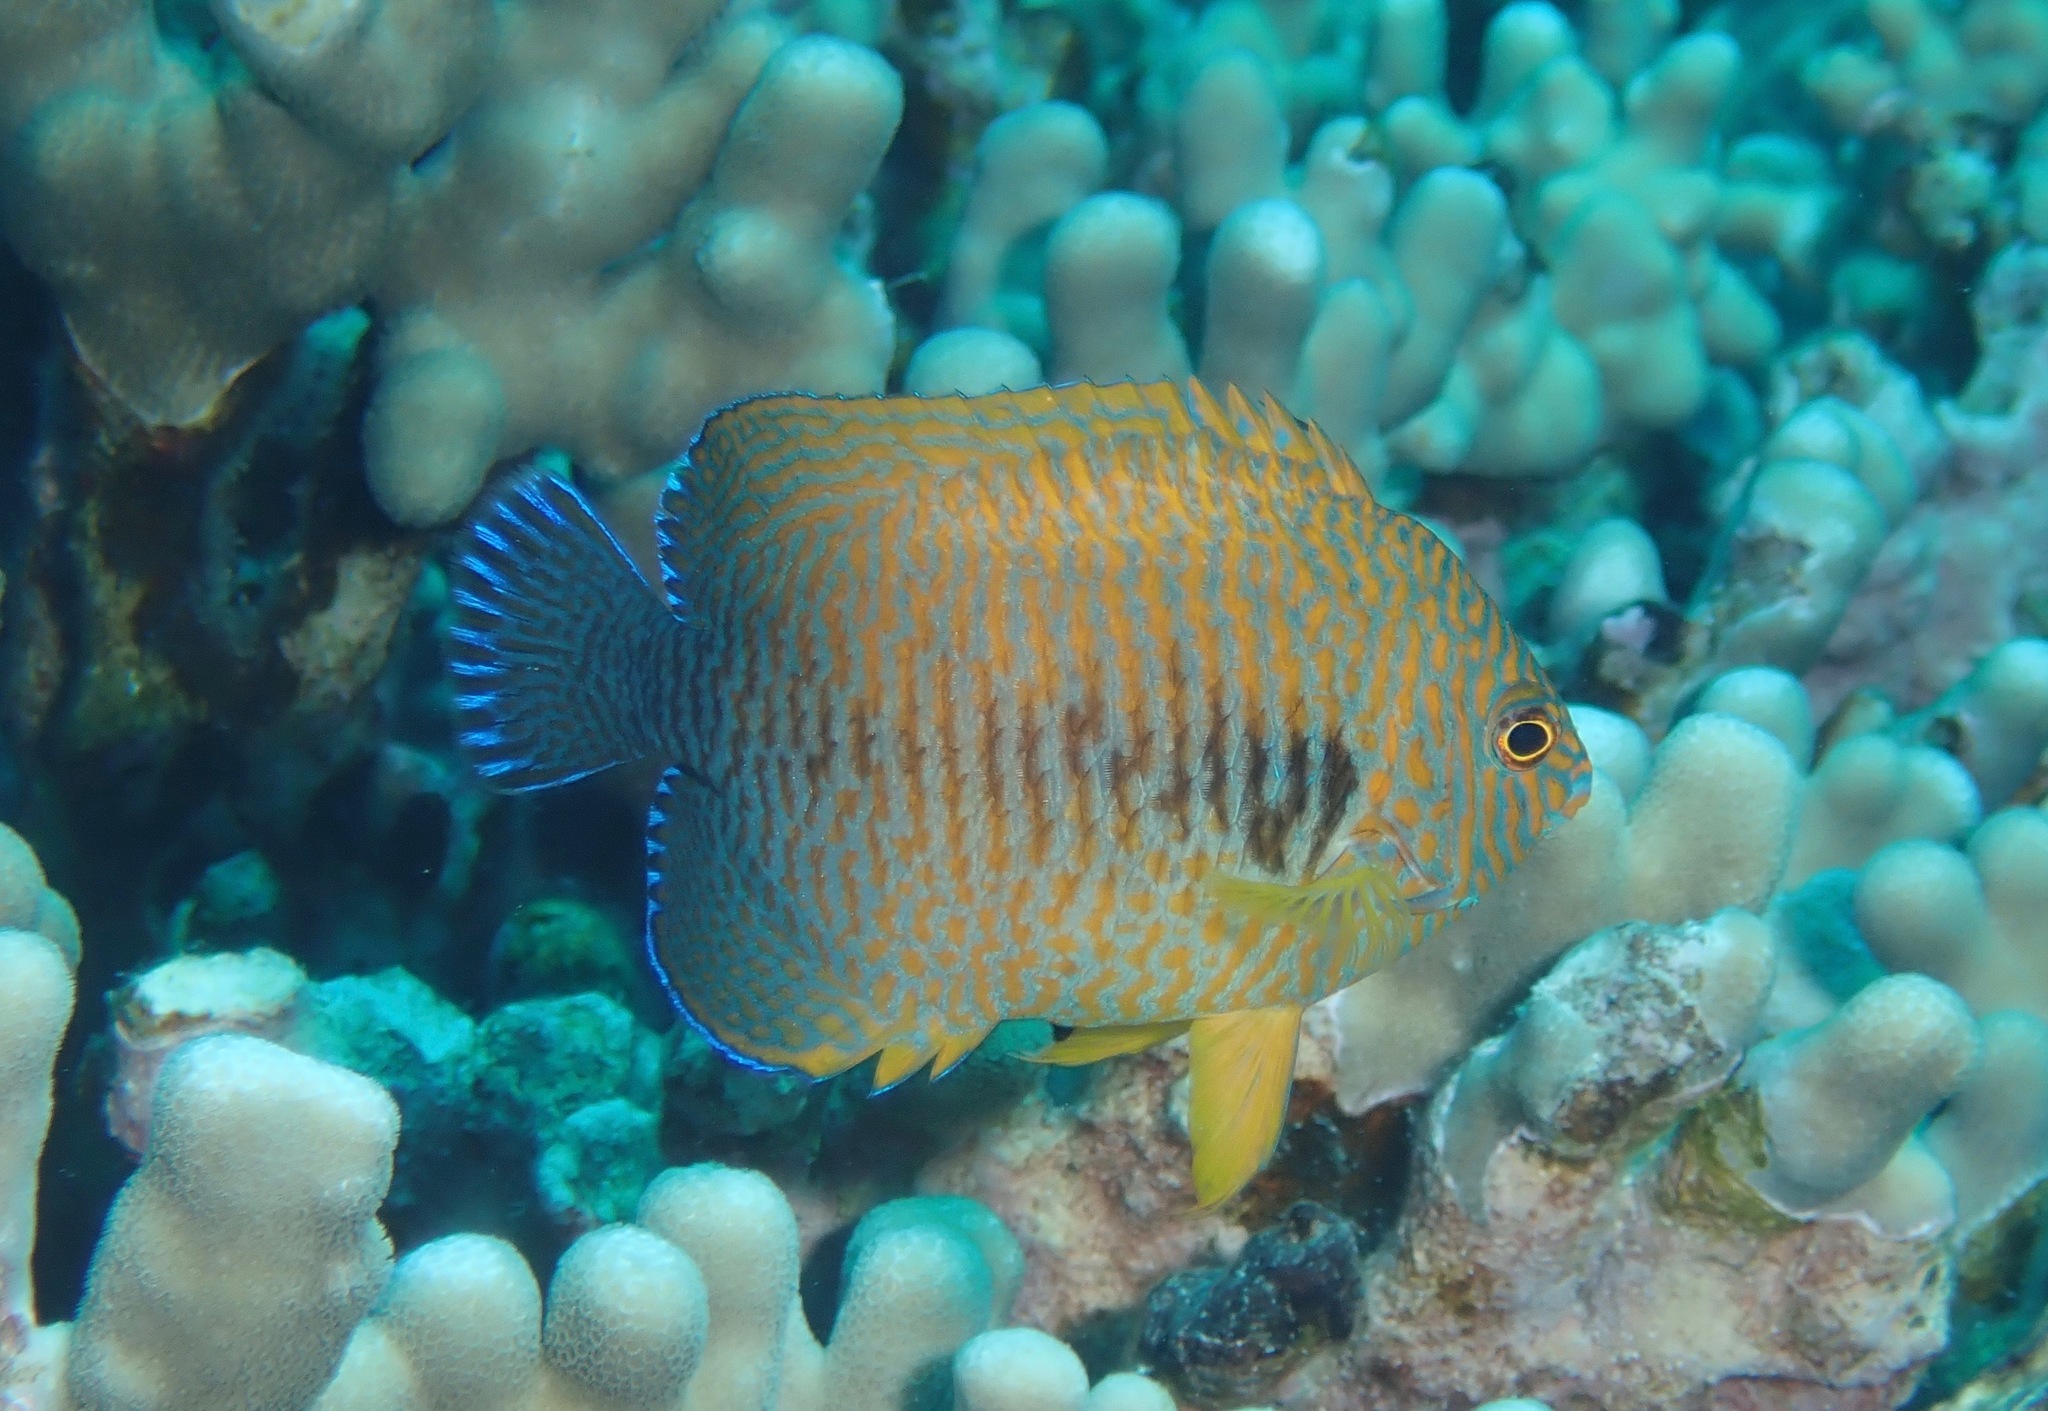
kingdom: Animalia
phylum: Chordata
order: Perciformes
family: Pomacanthidae
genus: Centropyge
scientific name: Centropyge potteri
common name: Potter's angelfish
